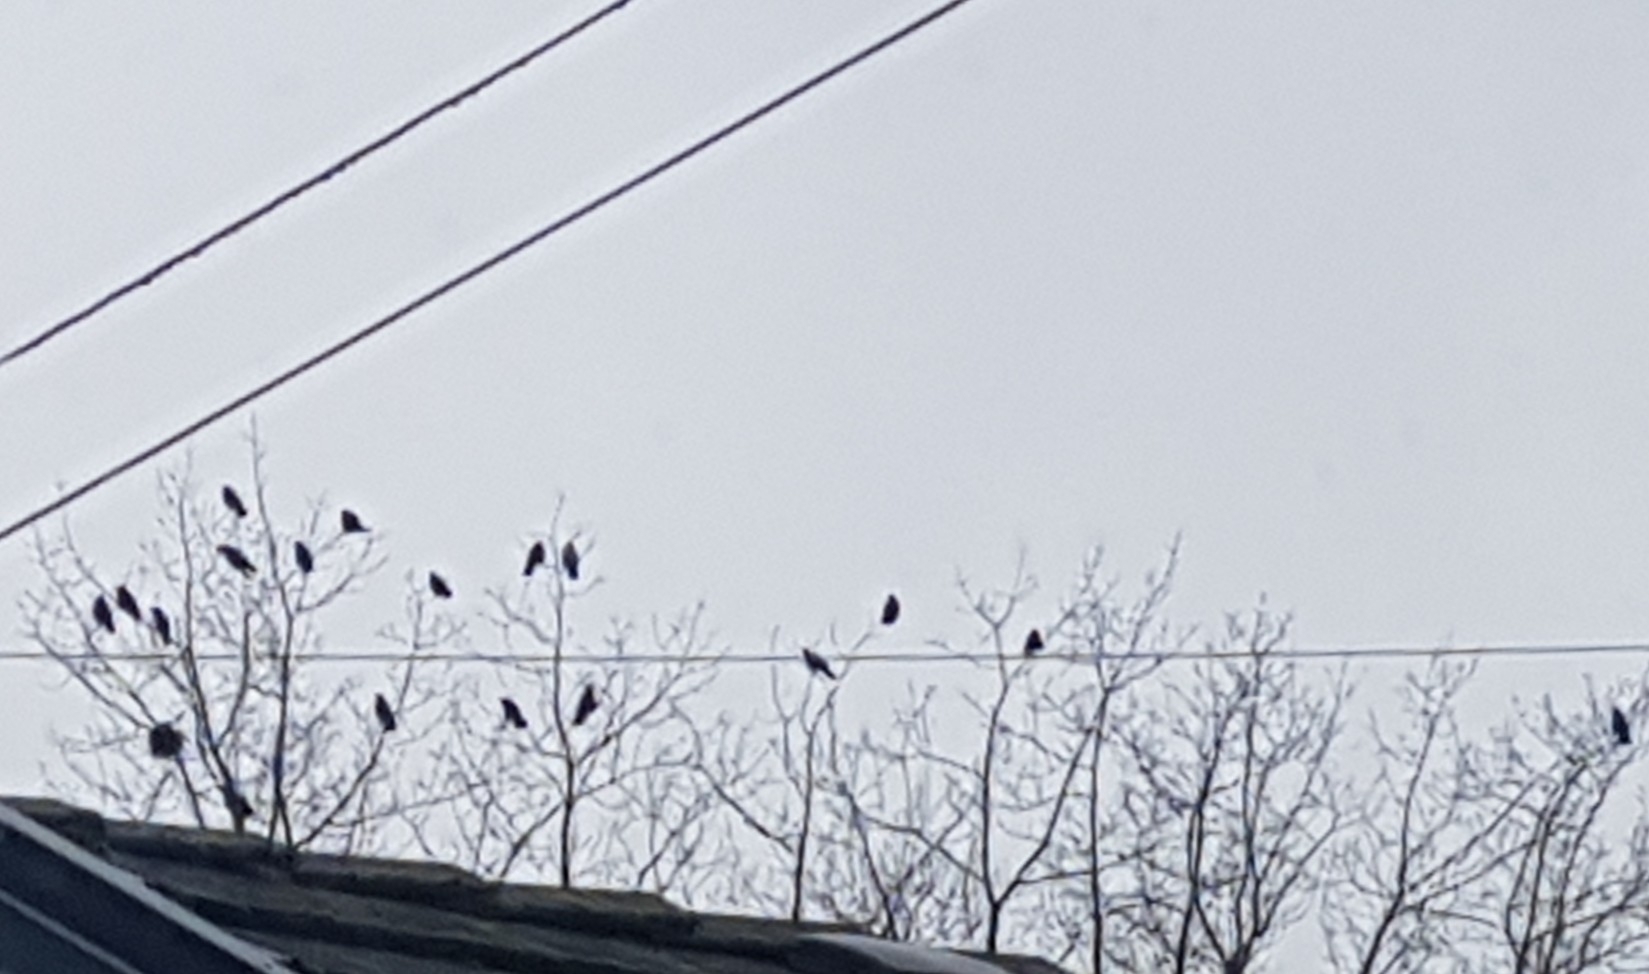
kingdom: Animalia
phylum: Chordata
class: Aves
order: Passeriformes
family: Corvidae
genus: Corvus
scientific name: Corvus brachyrhynchos
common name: American crow
